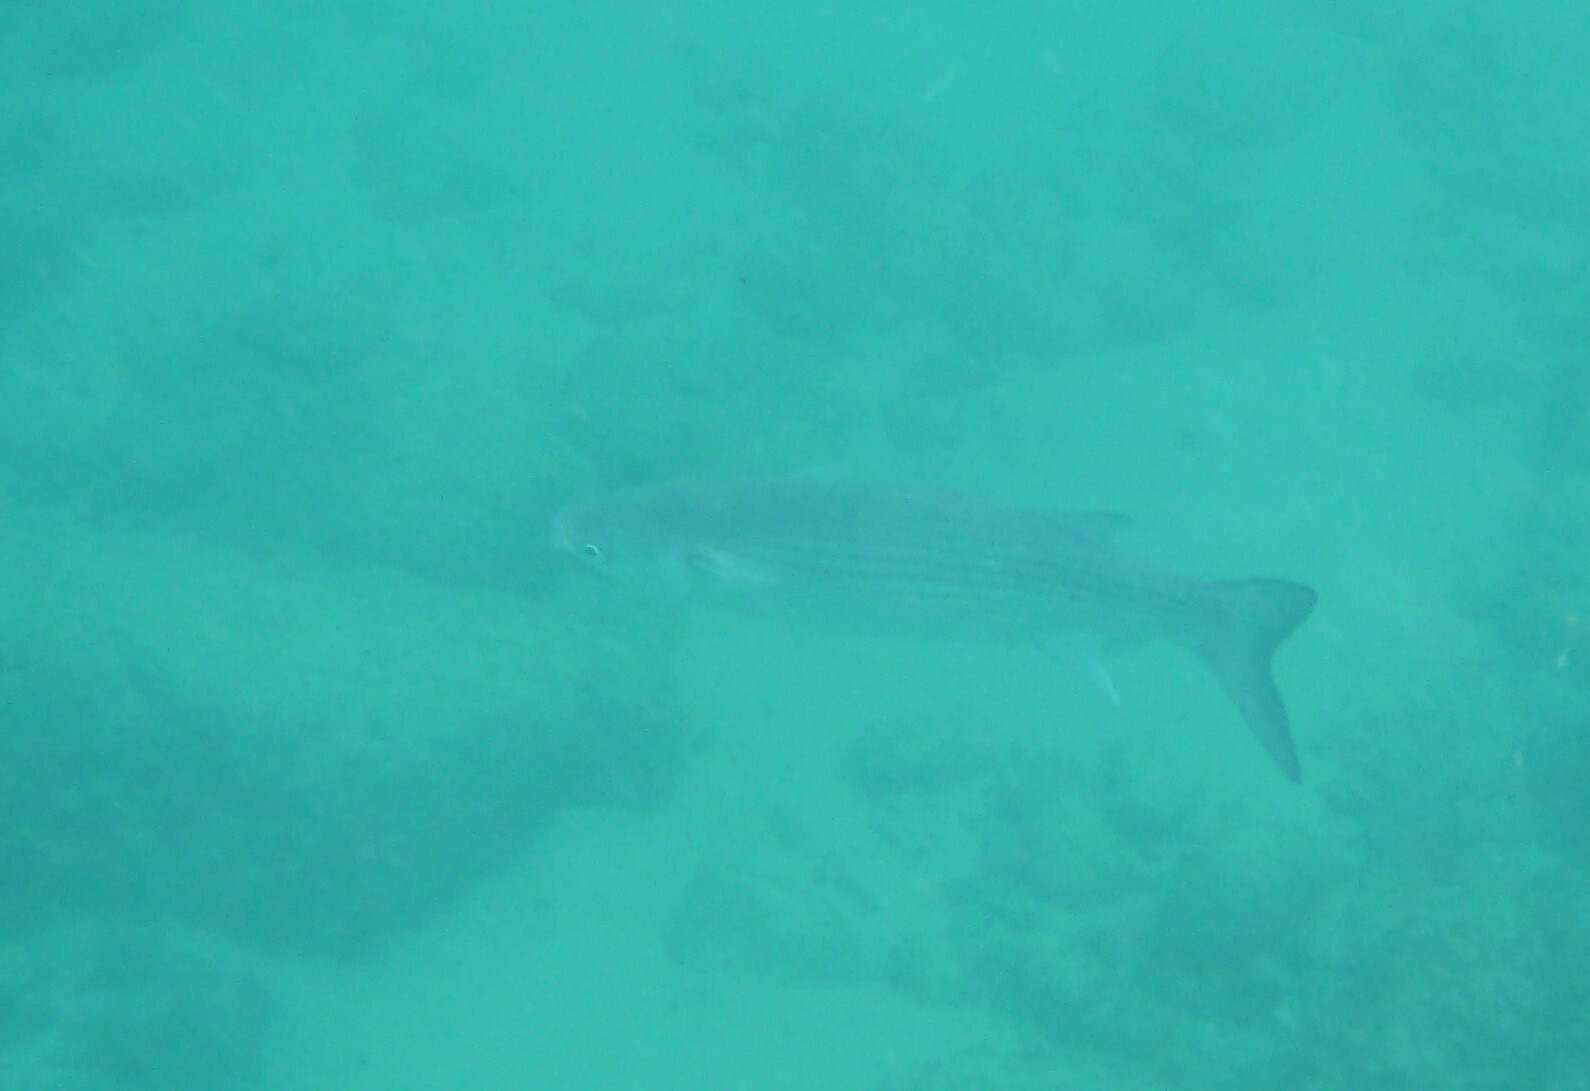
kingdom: Animalia
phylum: Chordata
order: Mugiliformes
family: Mugilidae
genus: Chelon
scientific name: Chelon labrosus
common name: Thick-lipped mullet
